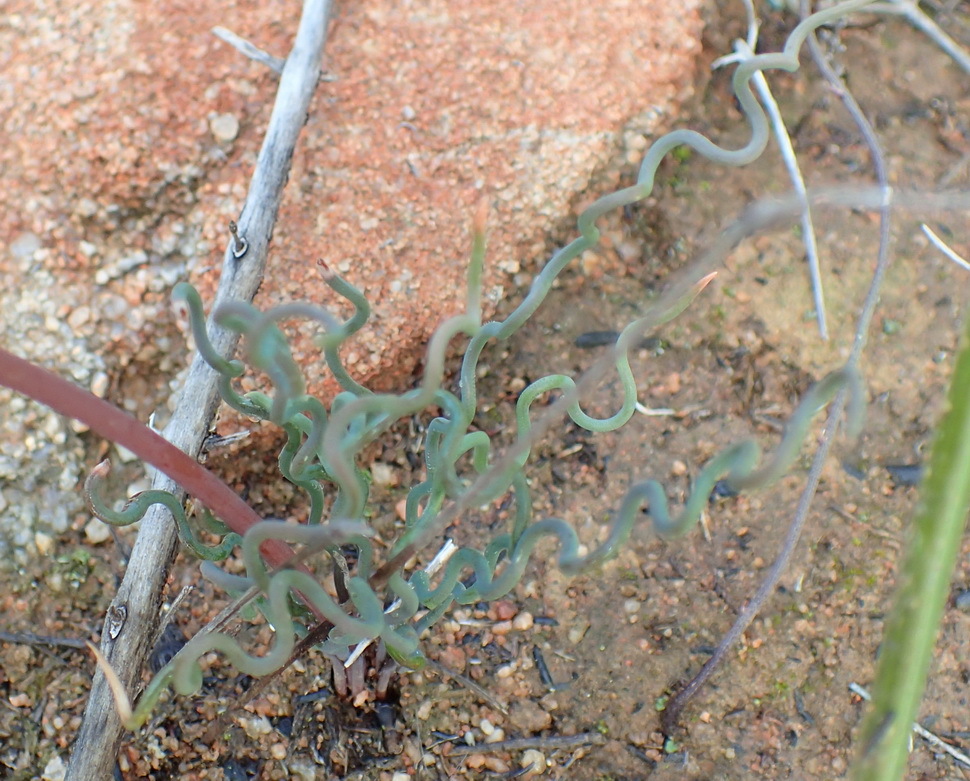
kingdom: Plantae
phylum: Tracheophyta
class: Liliopsida
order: Asparagales
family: Asphodelaceae
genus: Bulbine
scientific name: Bulbine torta
